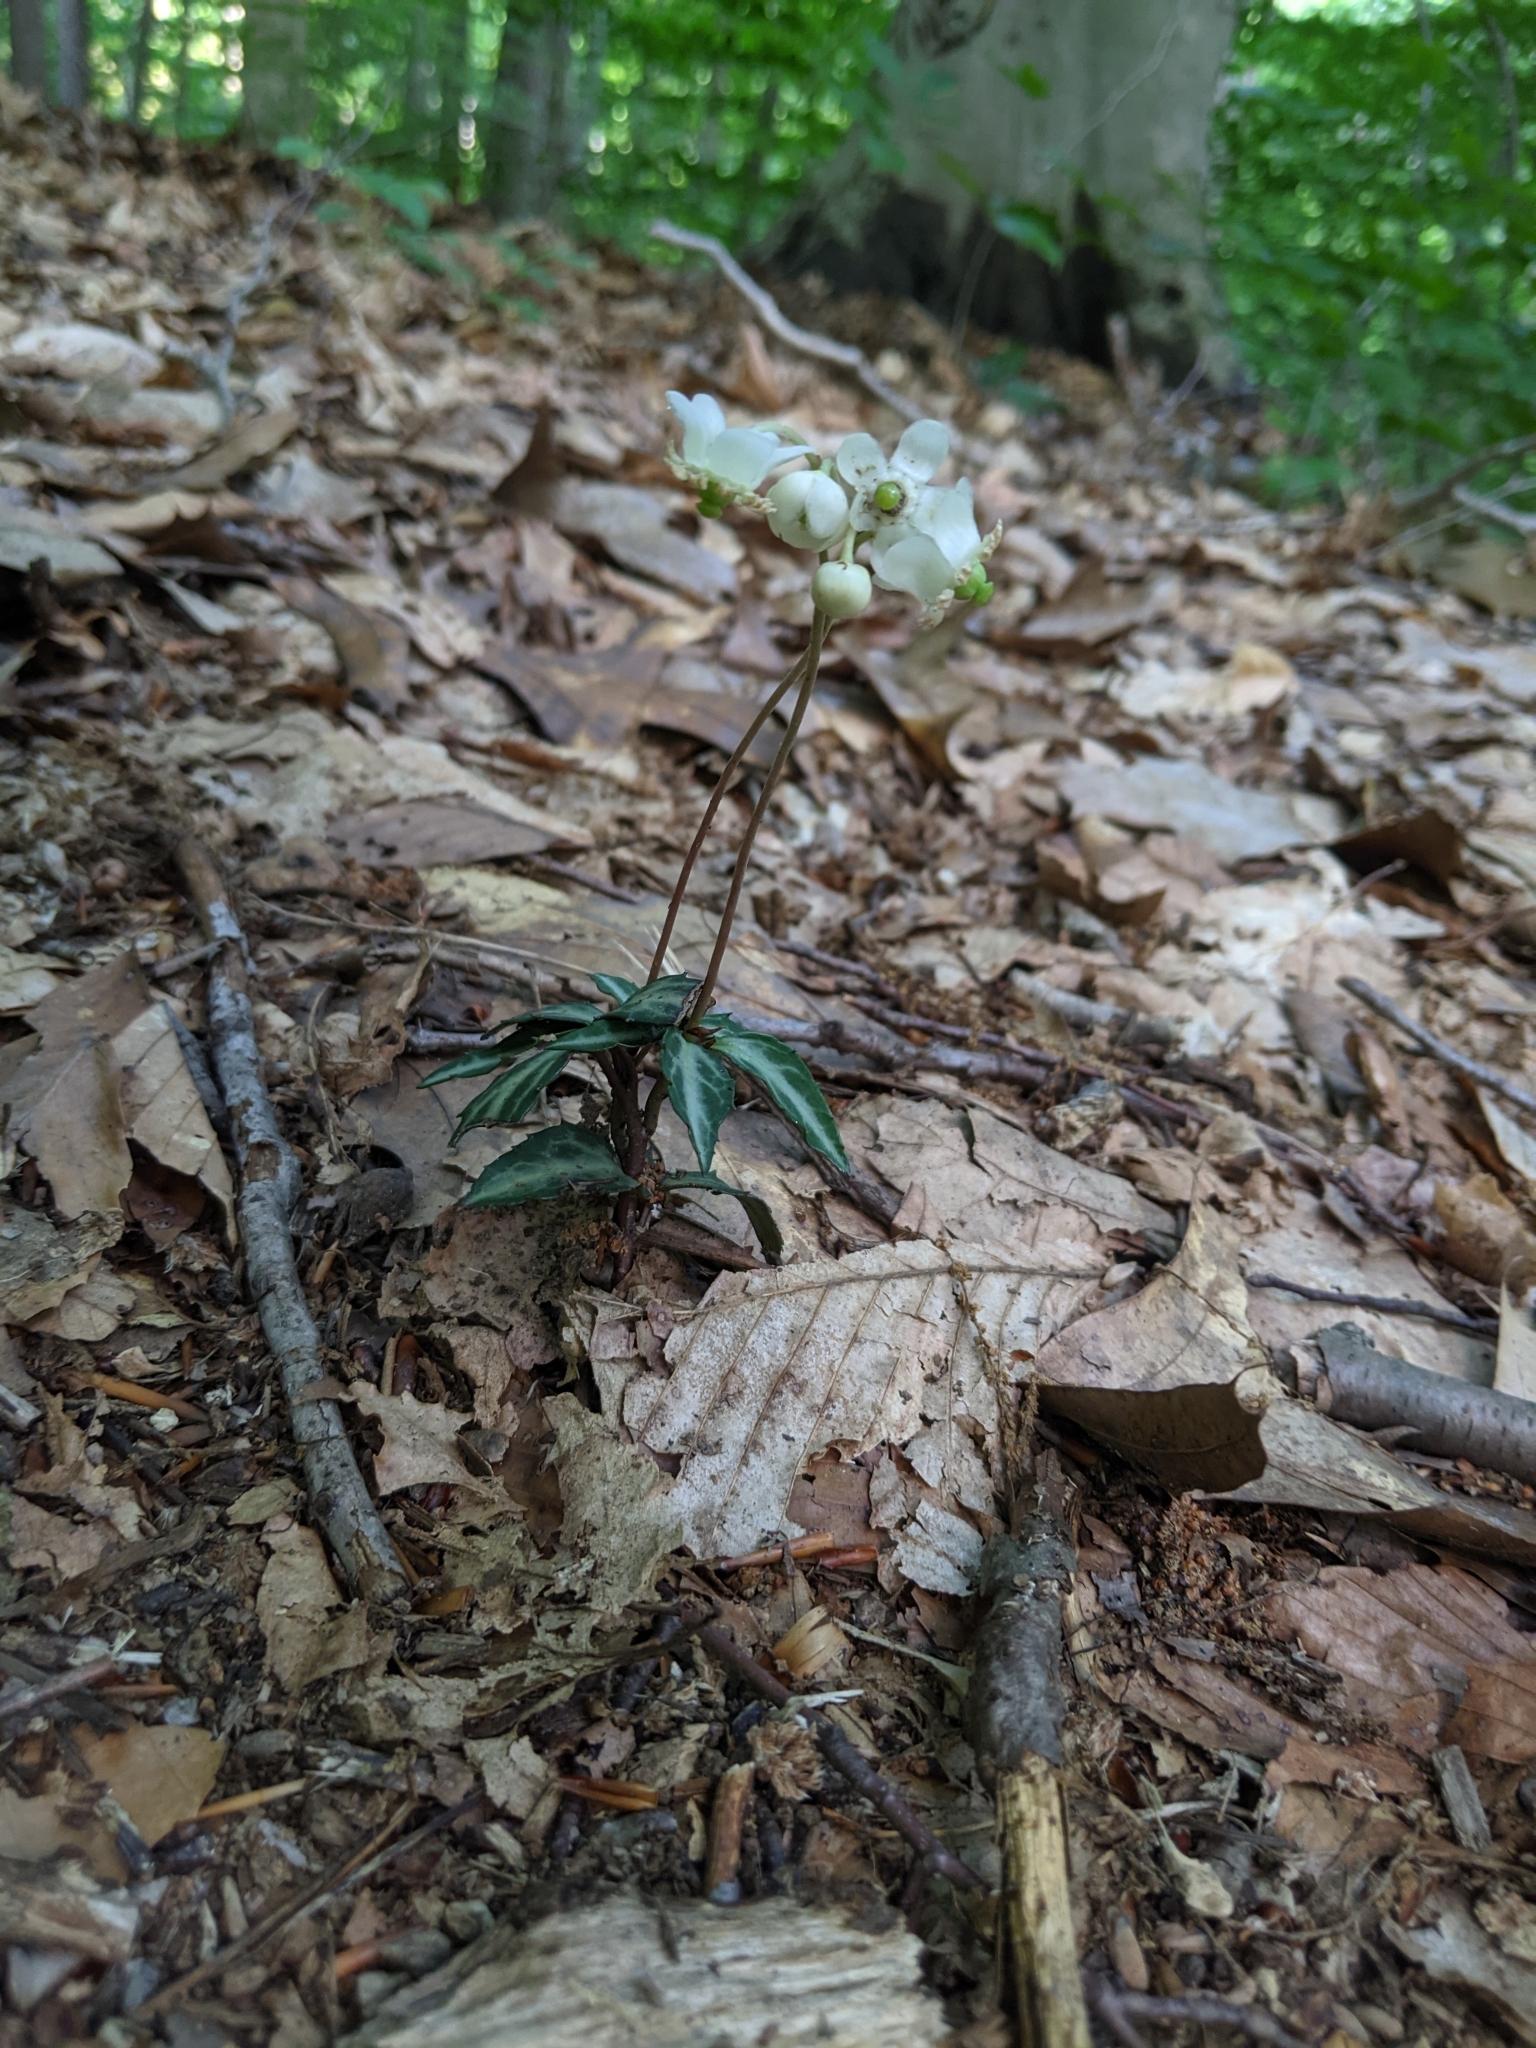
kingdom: Plantae
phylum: Tracheophyta
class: Magnoliopsida
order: Ericales
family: Ericaceae
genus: Chimaphila
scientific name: Chimaphila maculata
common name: Spotted pipsissewa
